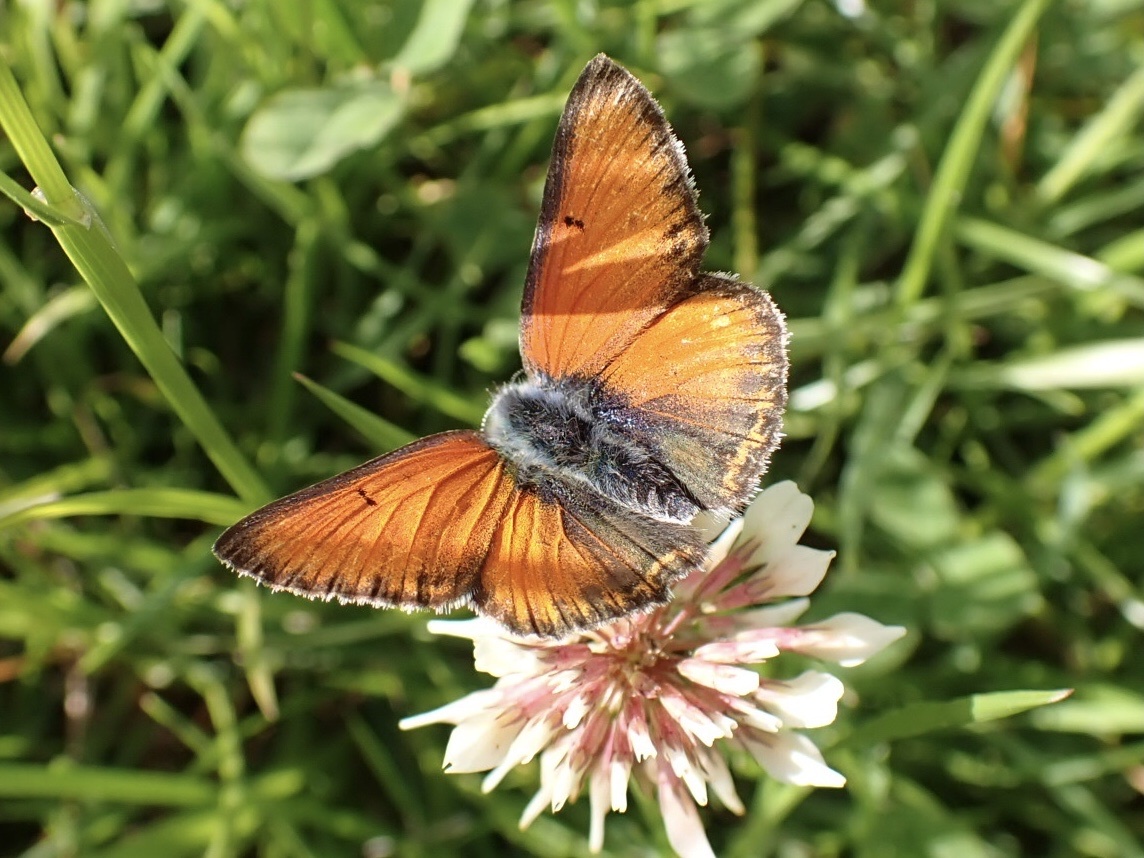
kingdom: Animalia
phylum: Arthropoda
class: Insecta
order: Lepidoptera
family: Lycaenidae
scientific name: Lycaenidae
